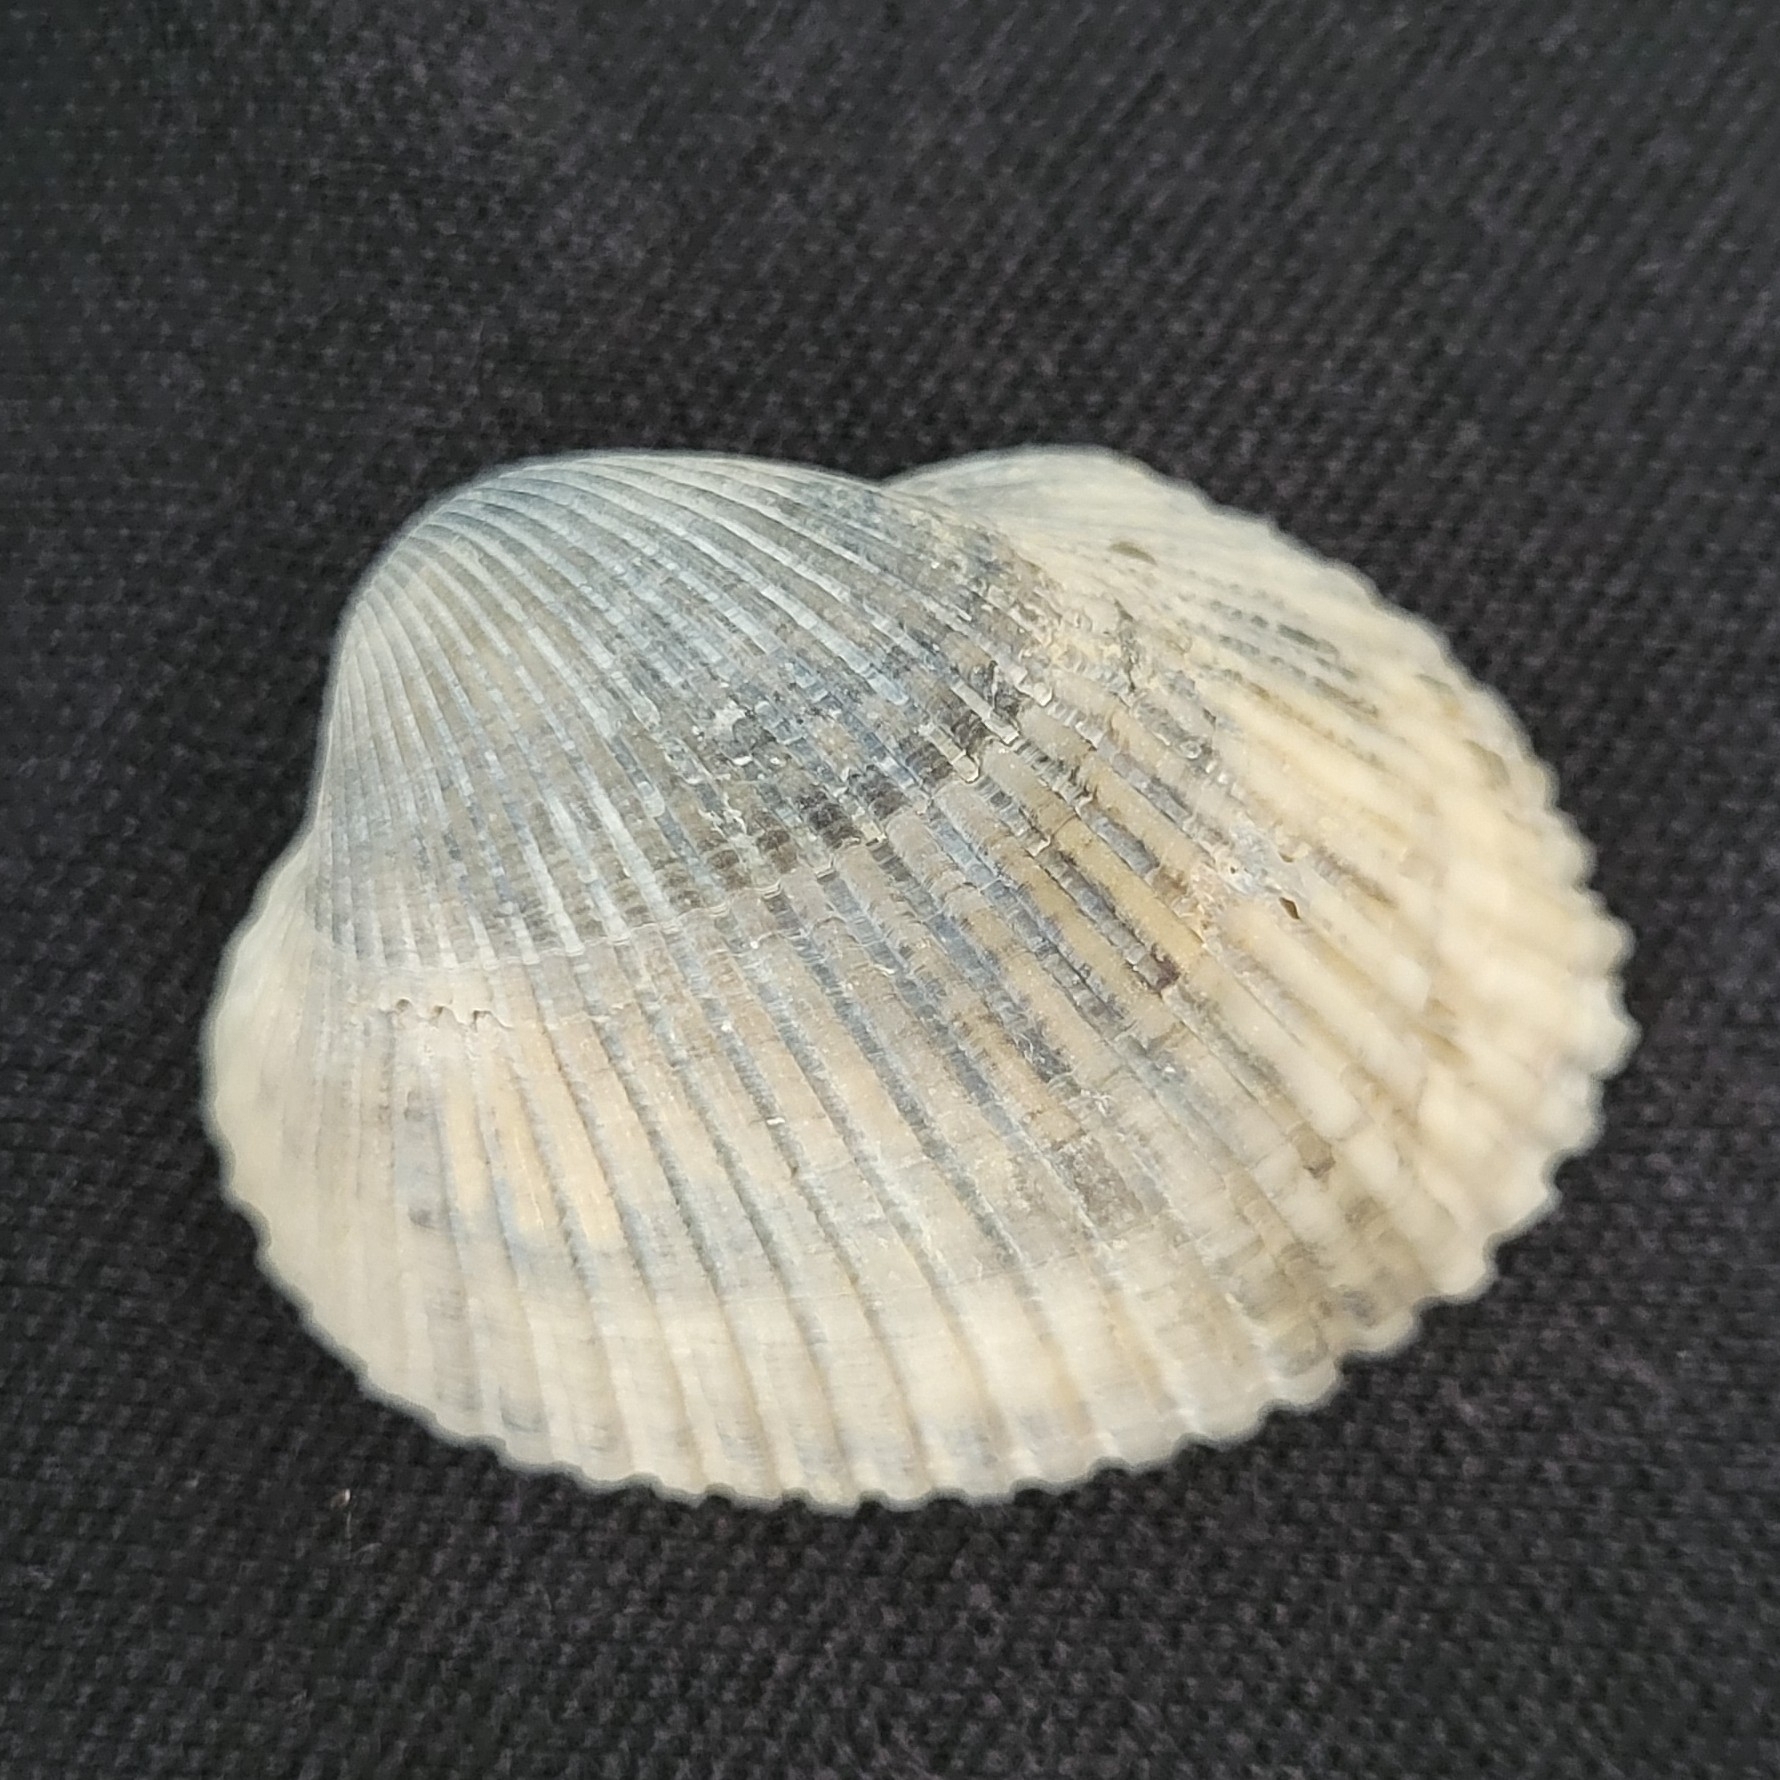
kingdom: Animalia
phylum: Mollusca
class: Bivalvia
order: Arcida
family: Arcidae
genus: Lunarca
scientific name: Lunarca ovalis
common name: Blood ark
